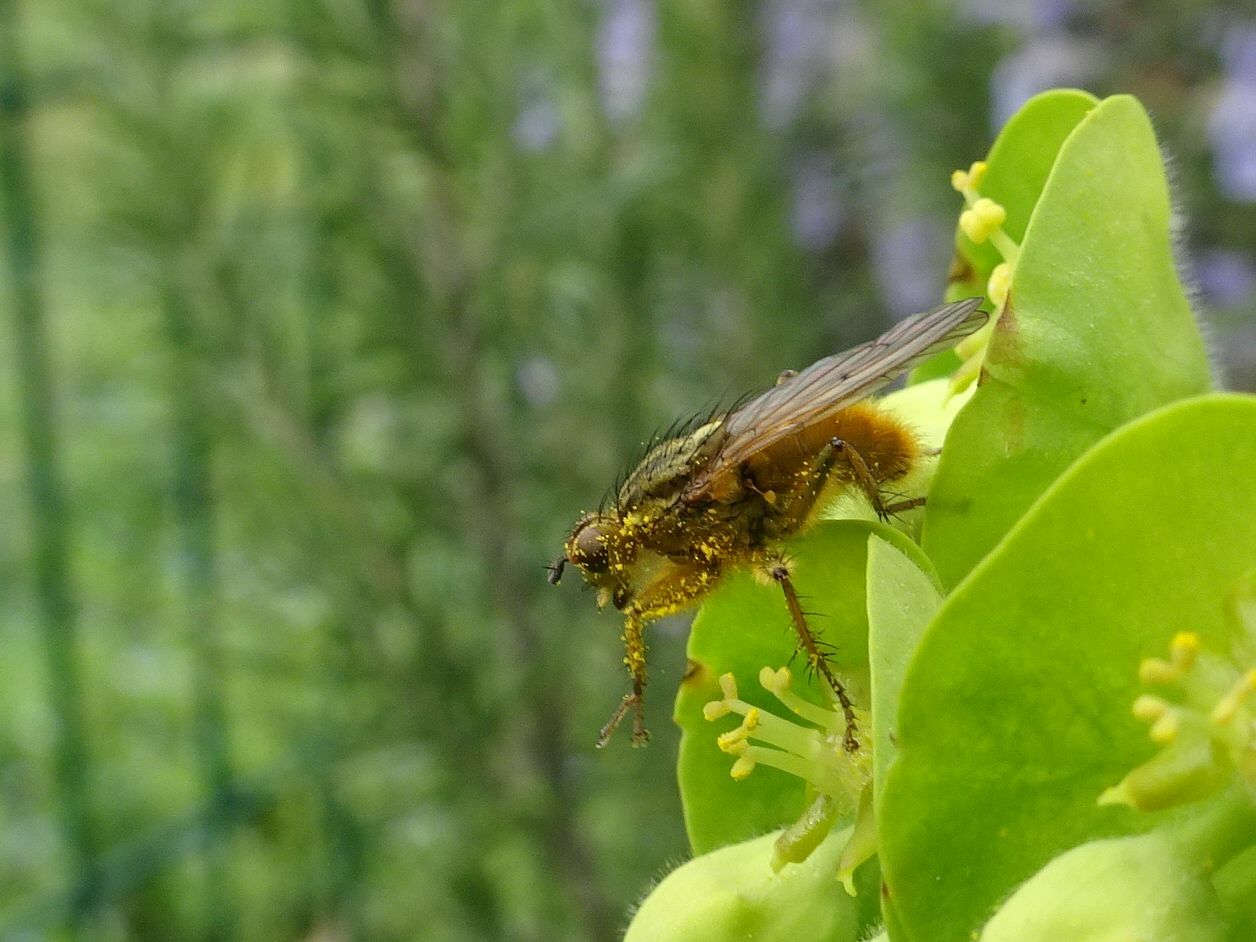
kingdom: Animalia
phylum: Arthropoda
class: Insecta
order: Diptera
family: Scathophagidae
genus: Scathophaga
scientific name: Scathophaga stercoraria
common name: Yellow dung fly
